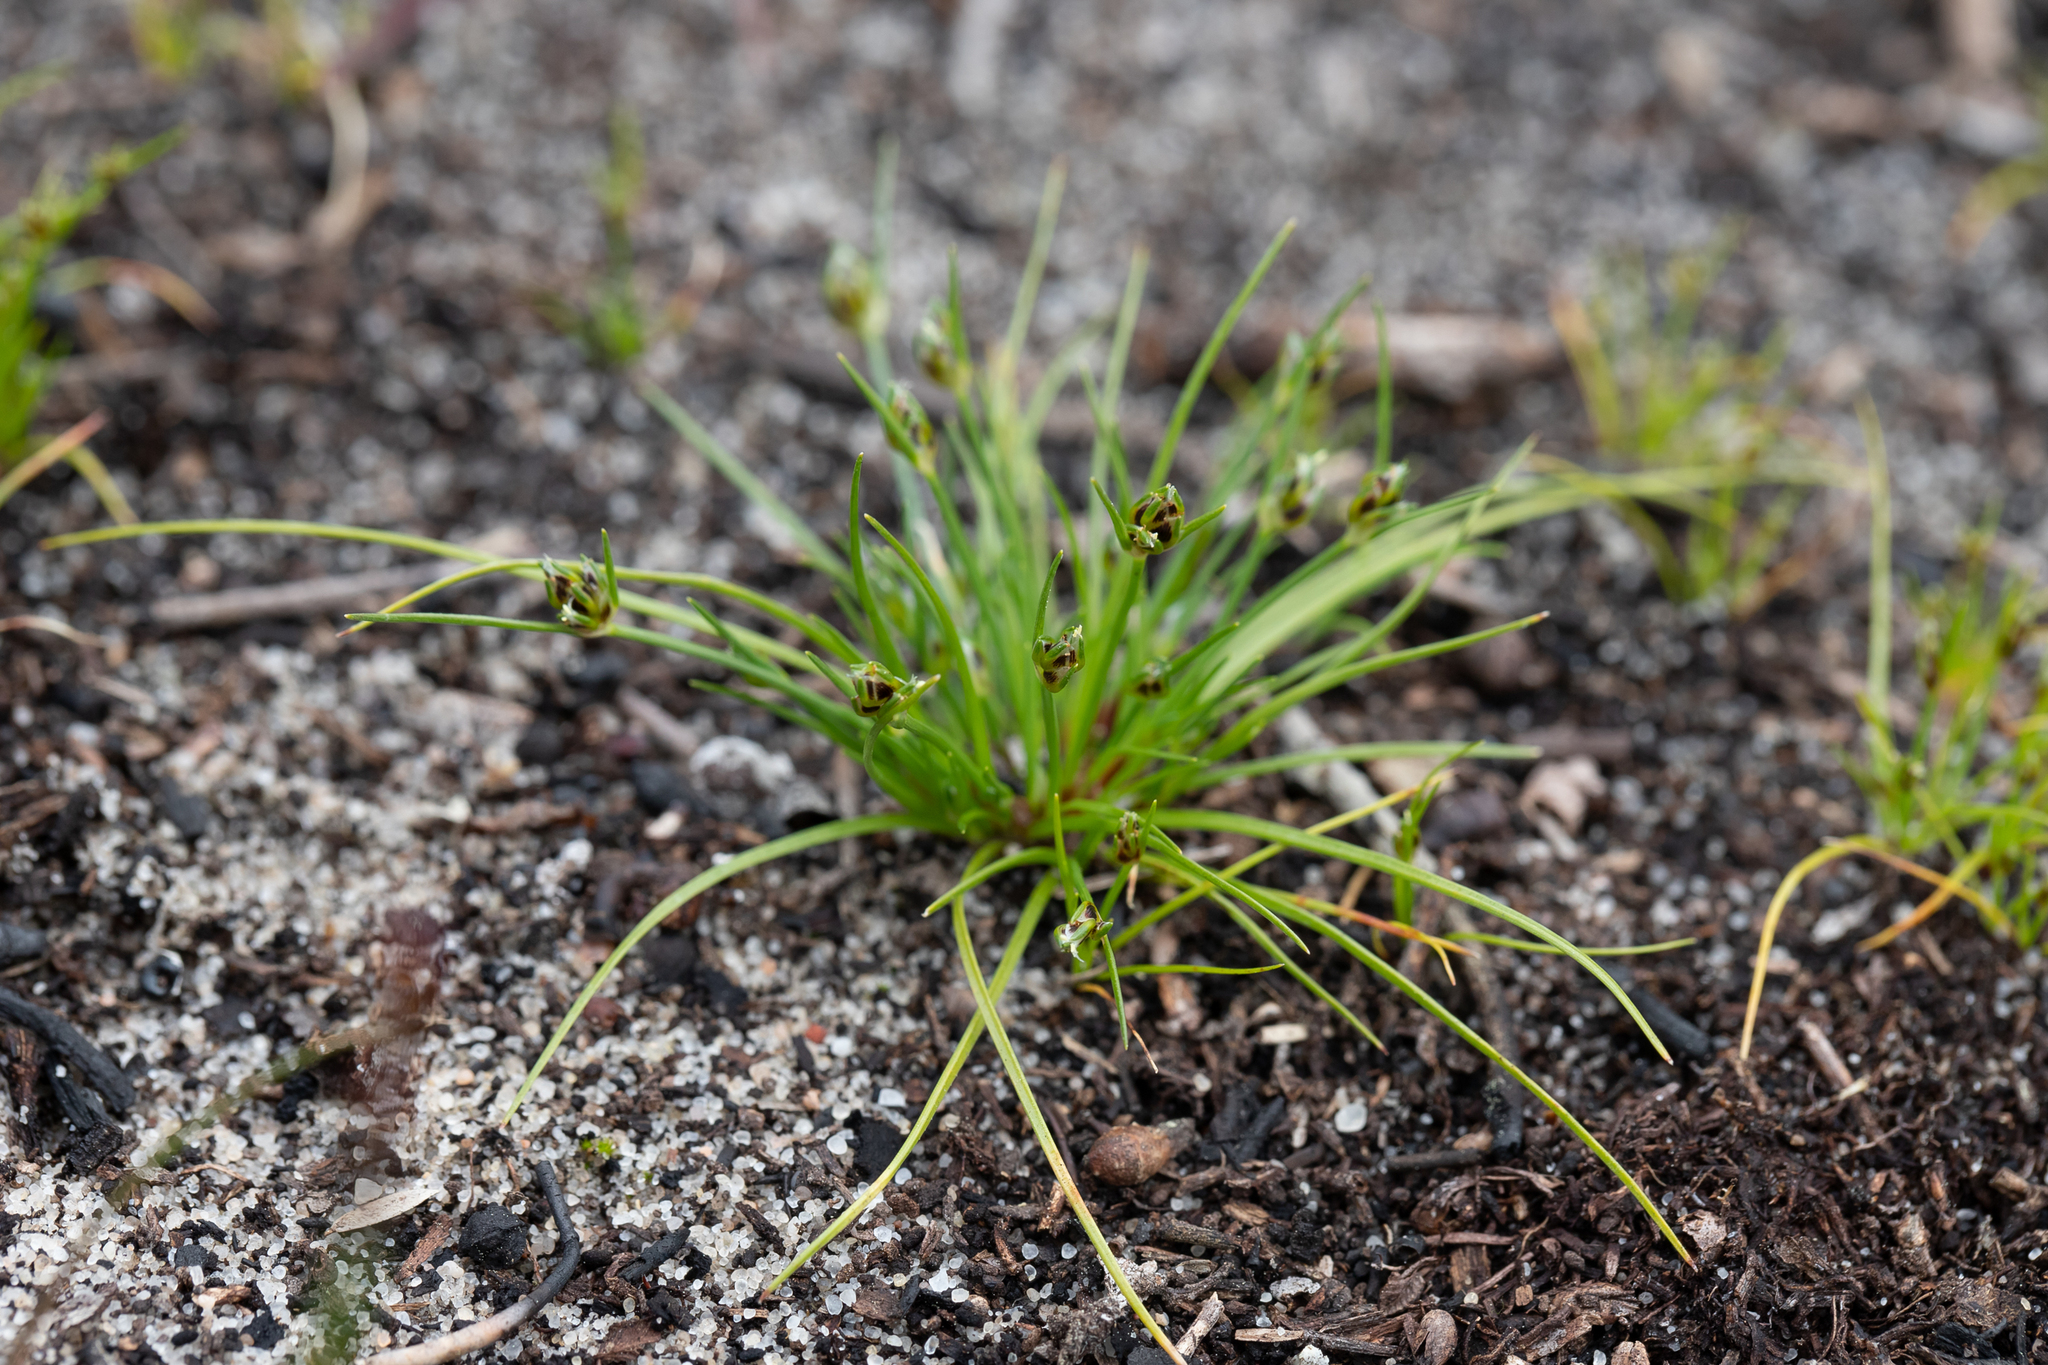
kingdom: Plantae
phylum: Tracheophyta
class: Liliopsida
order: Poales
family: Cyperaceae
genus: Isolepis
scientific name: Isolepis marginata
